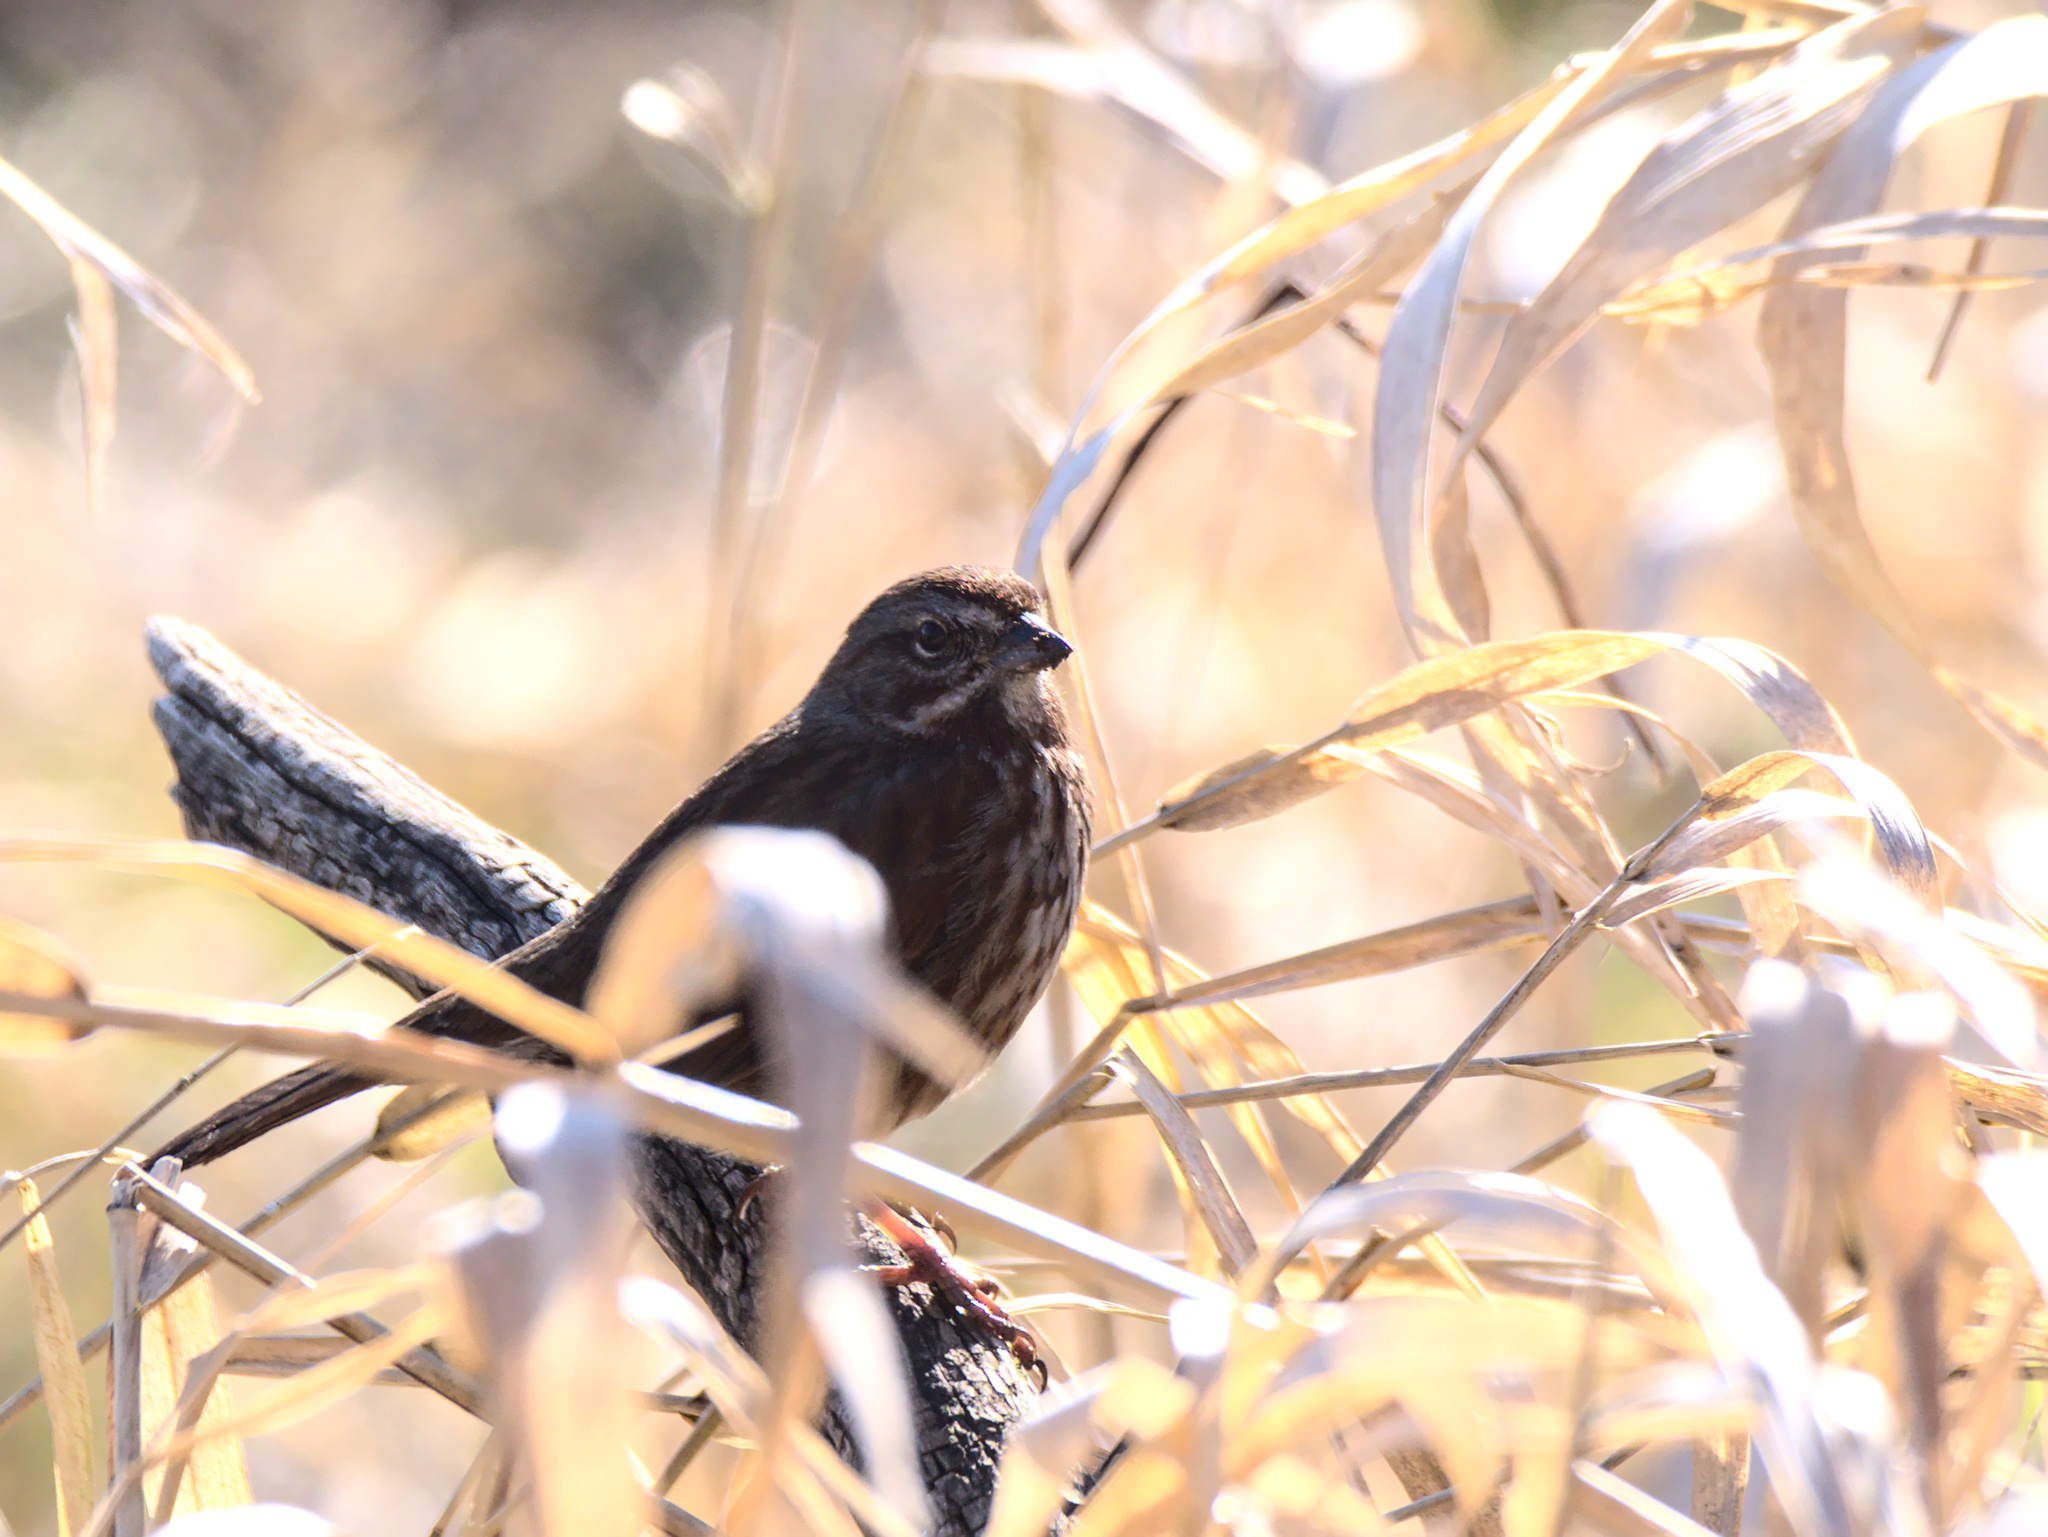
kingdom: Animalia
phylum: Chordata
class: Aves
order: Passeriformes
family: Passerellidae
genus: Melospiza
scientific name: Melospiza melodia
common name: Song sparrow
